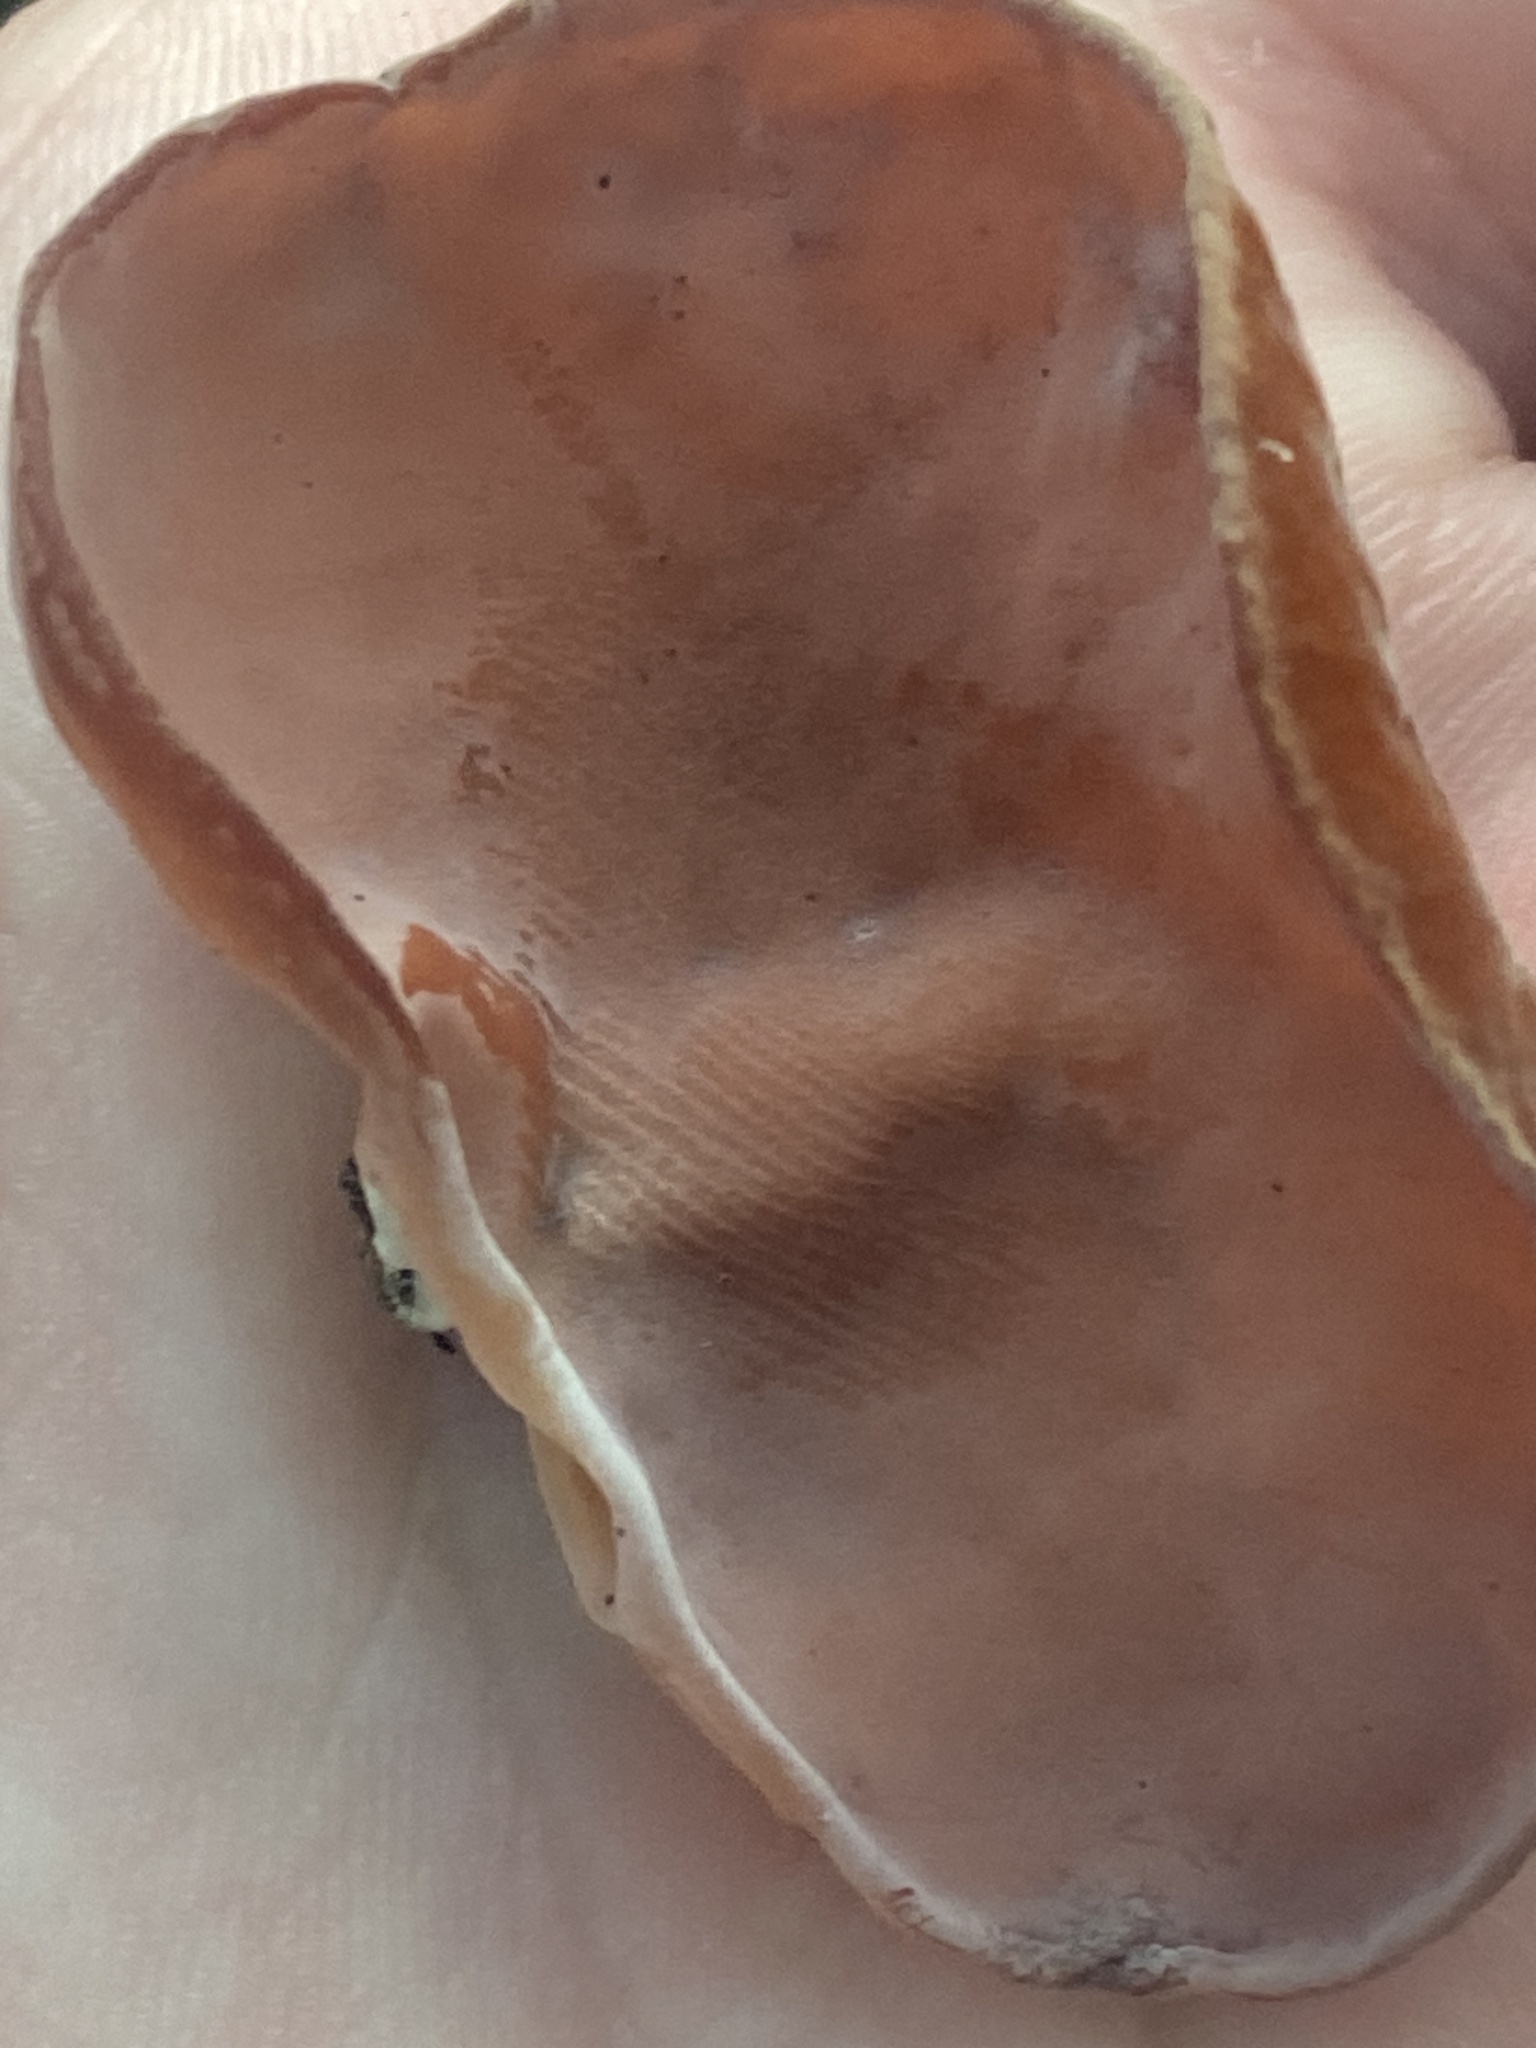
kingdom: Fungi
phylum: Basidiomycota
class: Agaricomycetes
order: Auriculariales
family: Auriculariaceae
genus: Auricularia
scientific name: Auricularia americana
